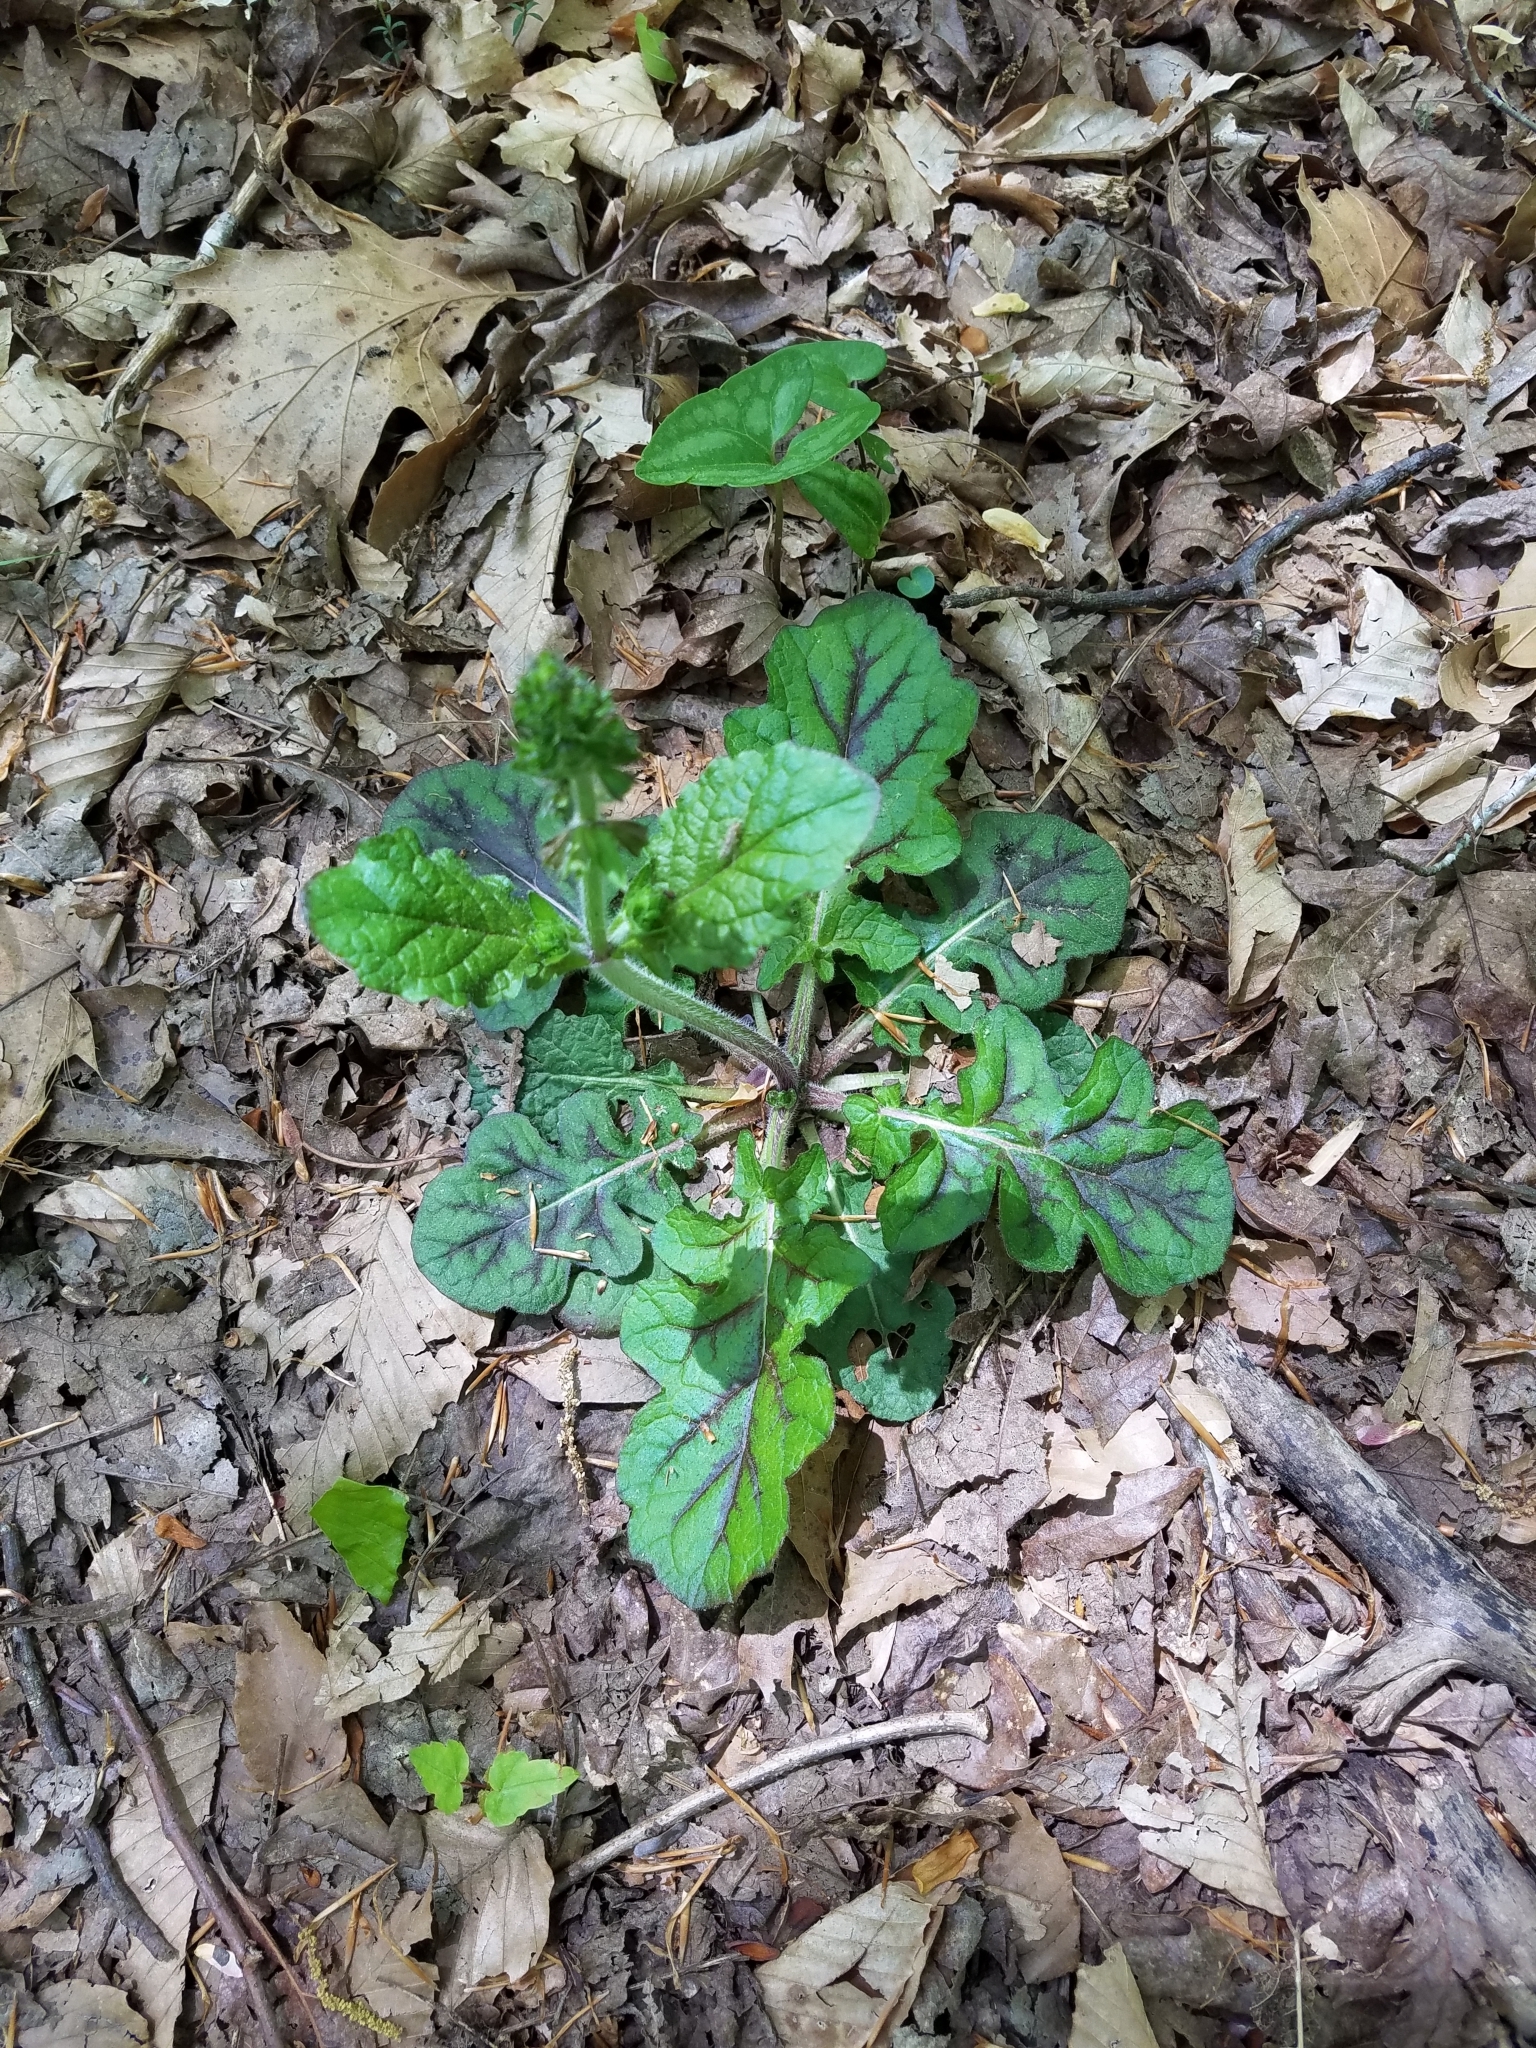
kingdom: Plantae
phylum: Tracheophyta
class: Magnoliopsida
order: Lamiales
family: Lamiaceae
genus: Salvia
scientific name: Salvia lyrata
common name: Cancerweed
